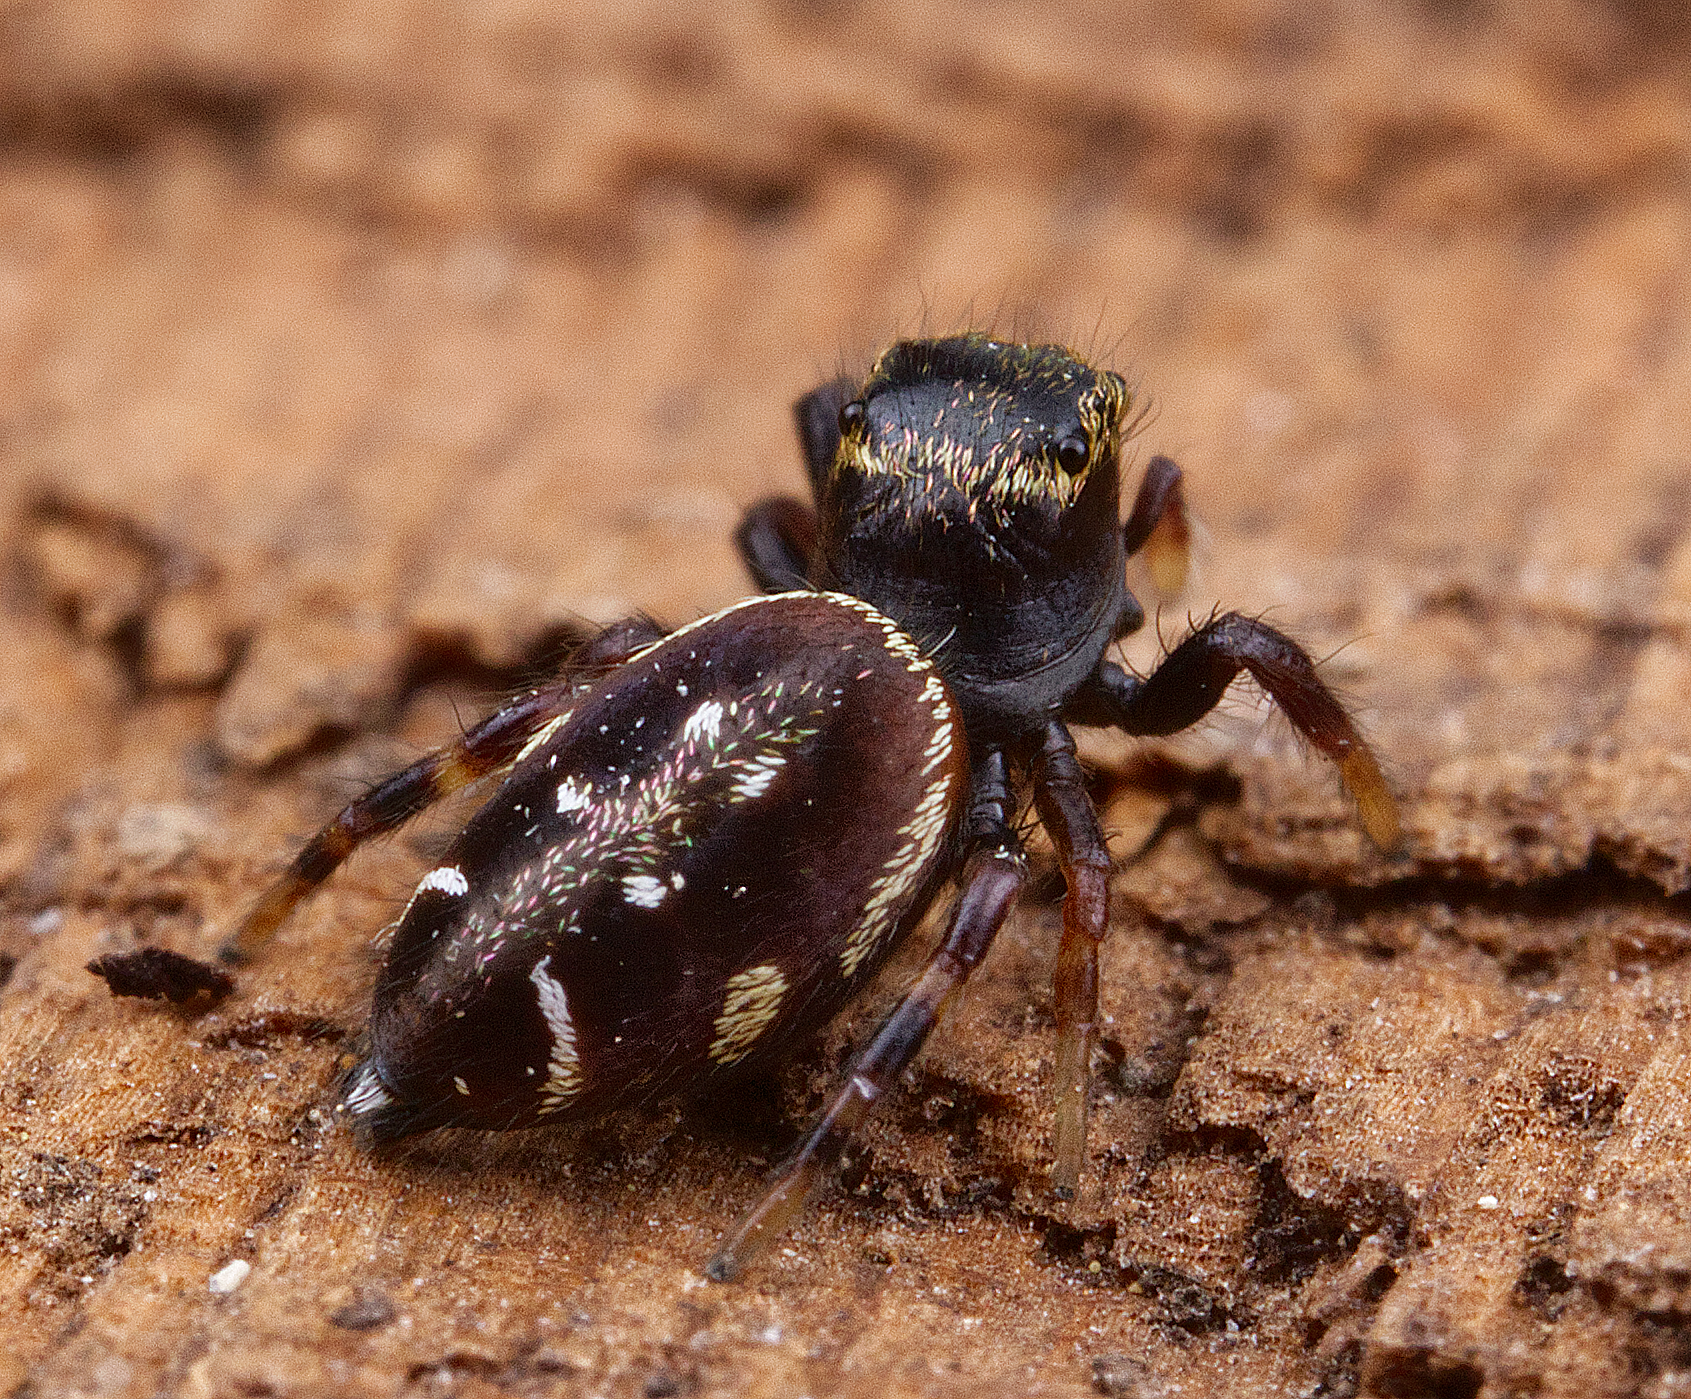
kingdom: Animalia
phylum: Arthropoda
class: Arachnida
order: Araneae
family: Salticidae
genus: Paraphidippus
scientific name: Paraphidippus aurantius
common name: Jumping spiders
